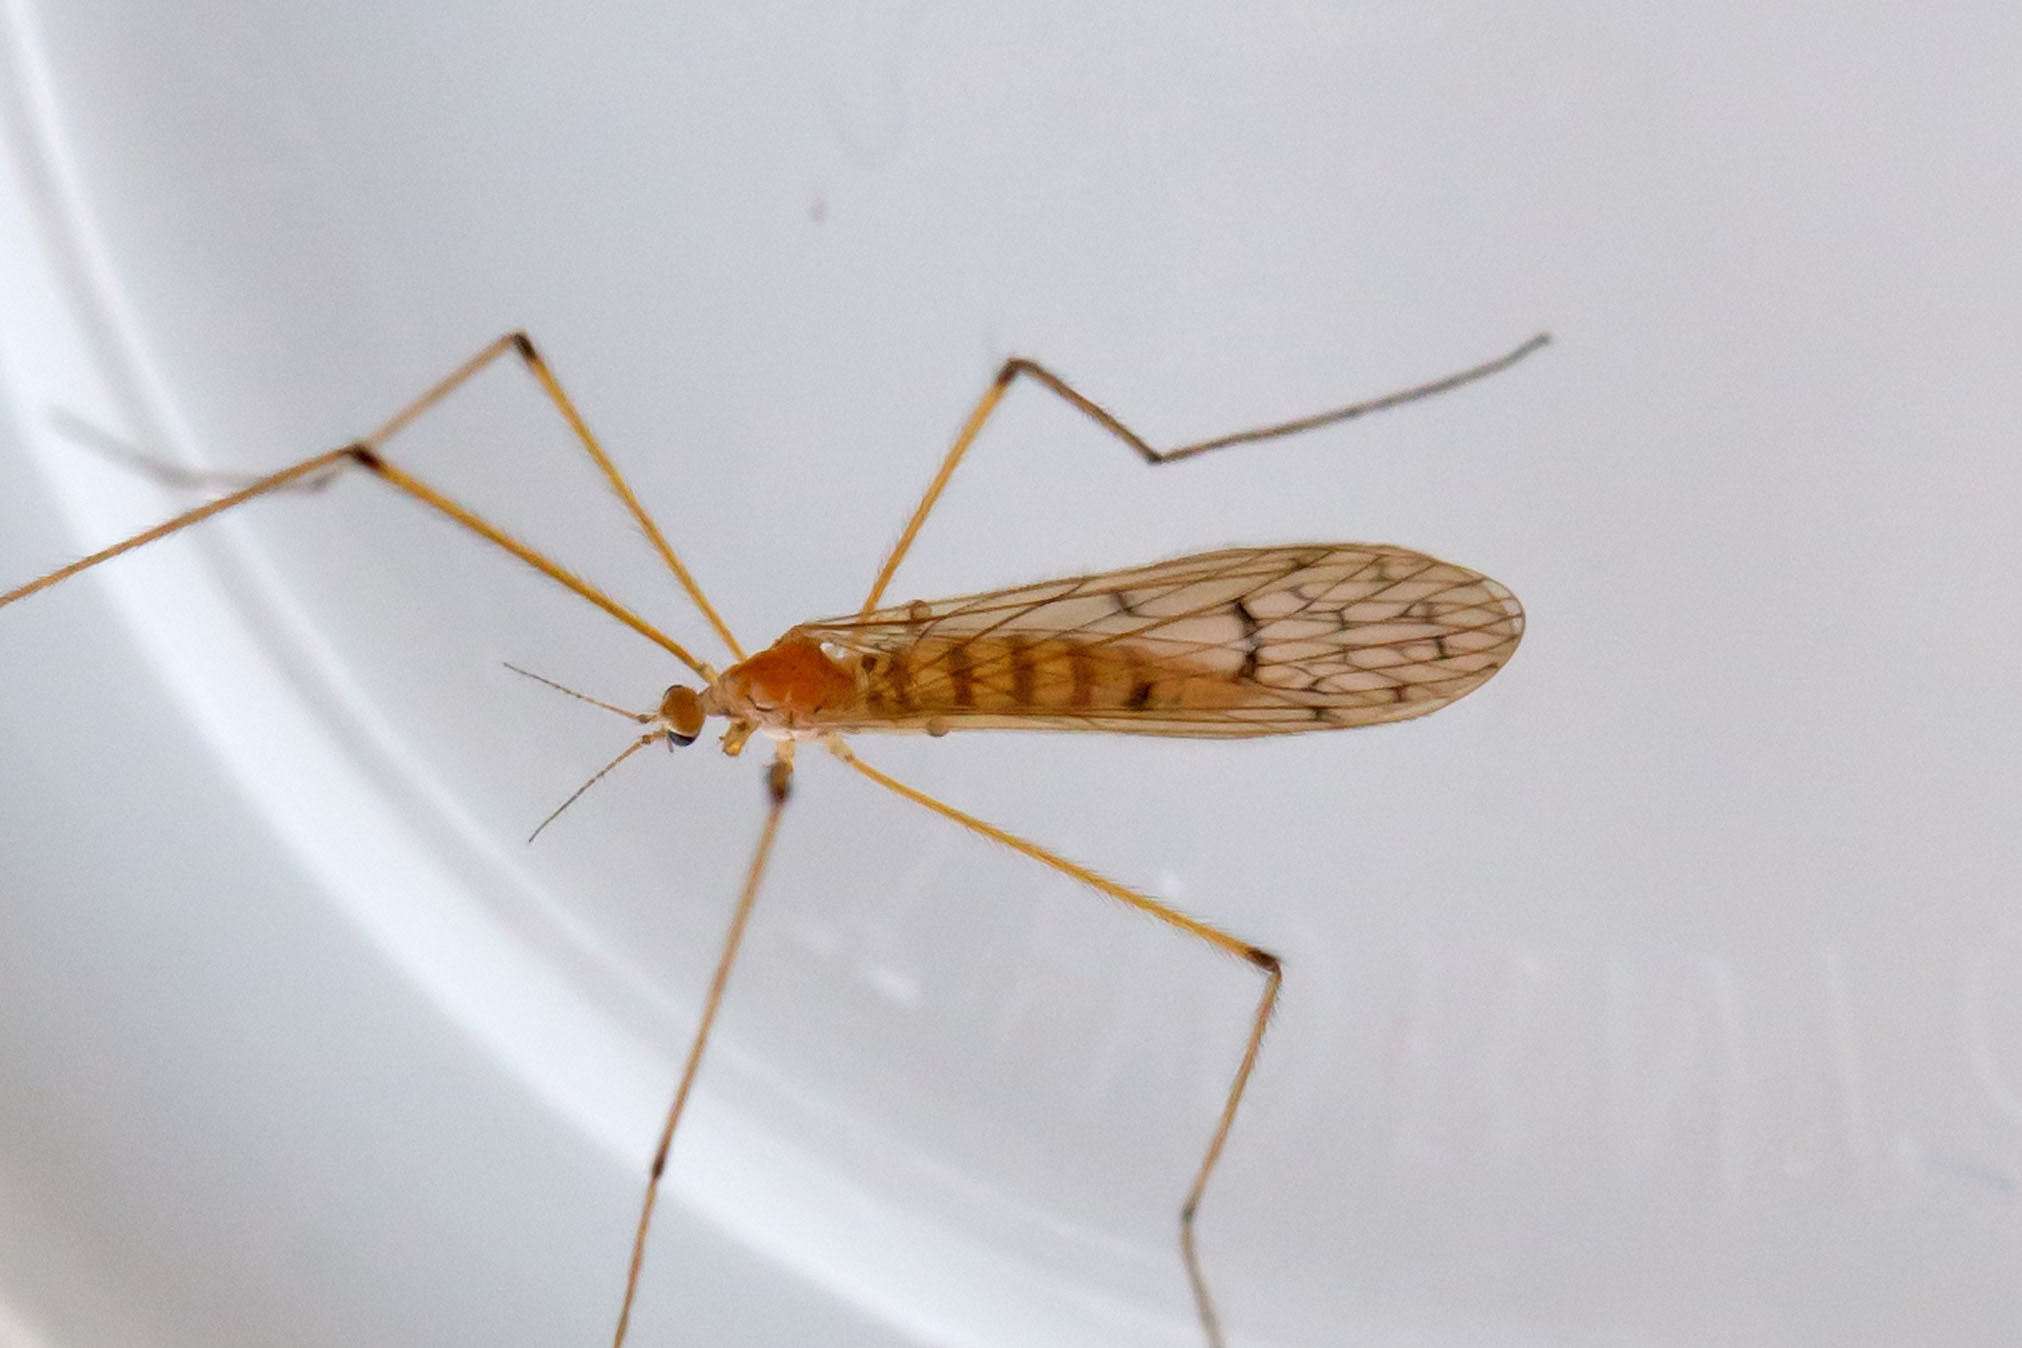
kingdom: Animalia
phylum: Arthropoda
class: Insecta
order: Diptera
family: Limoniidae
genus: Cladura
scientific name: Cladura flavoferruginea
